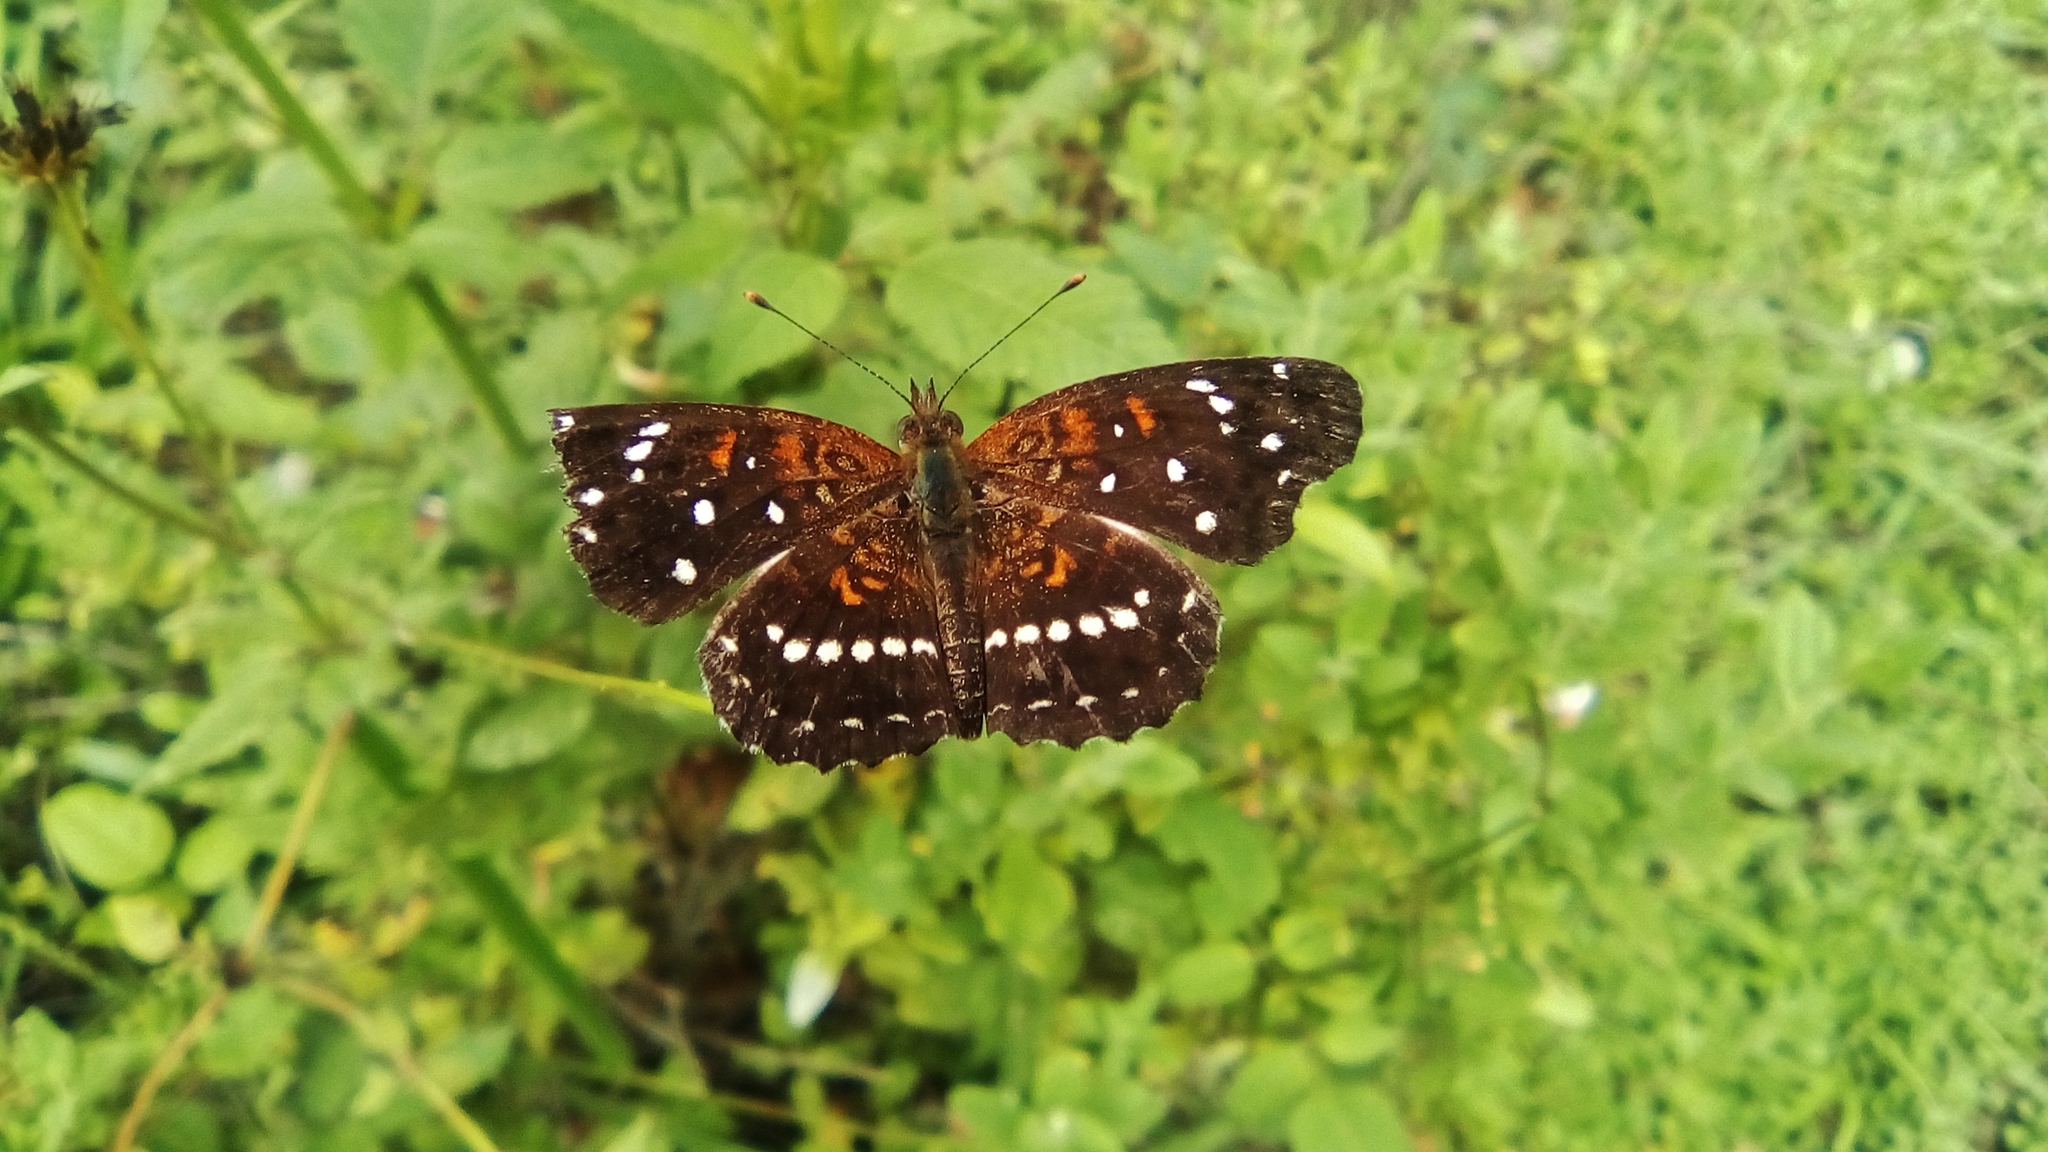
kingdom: Animalia
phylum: Arthropoda
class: Insecta
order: Lepidoptera
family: Nymphalidae
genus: Anthanassa
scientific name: Anthanassa texana
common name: Texan crescent
